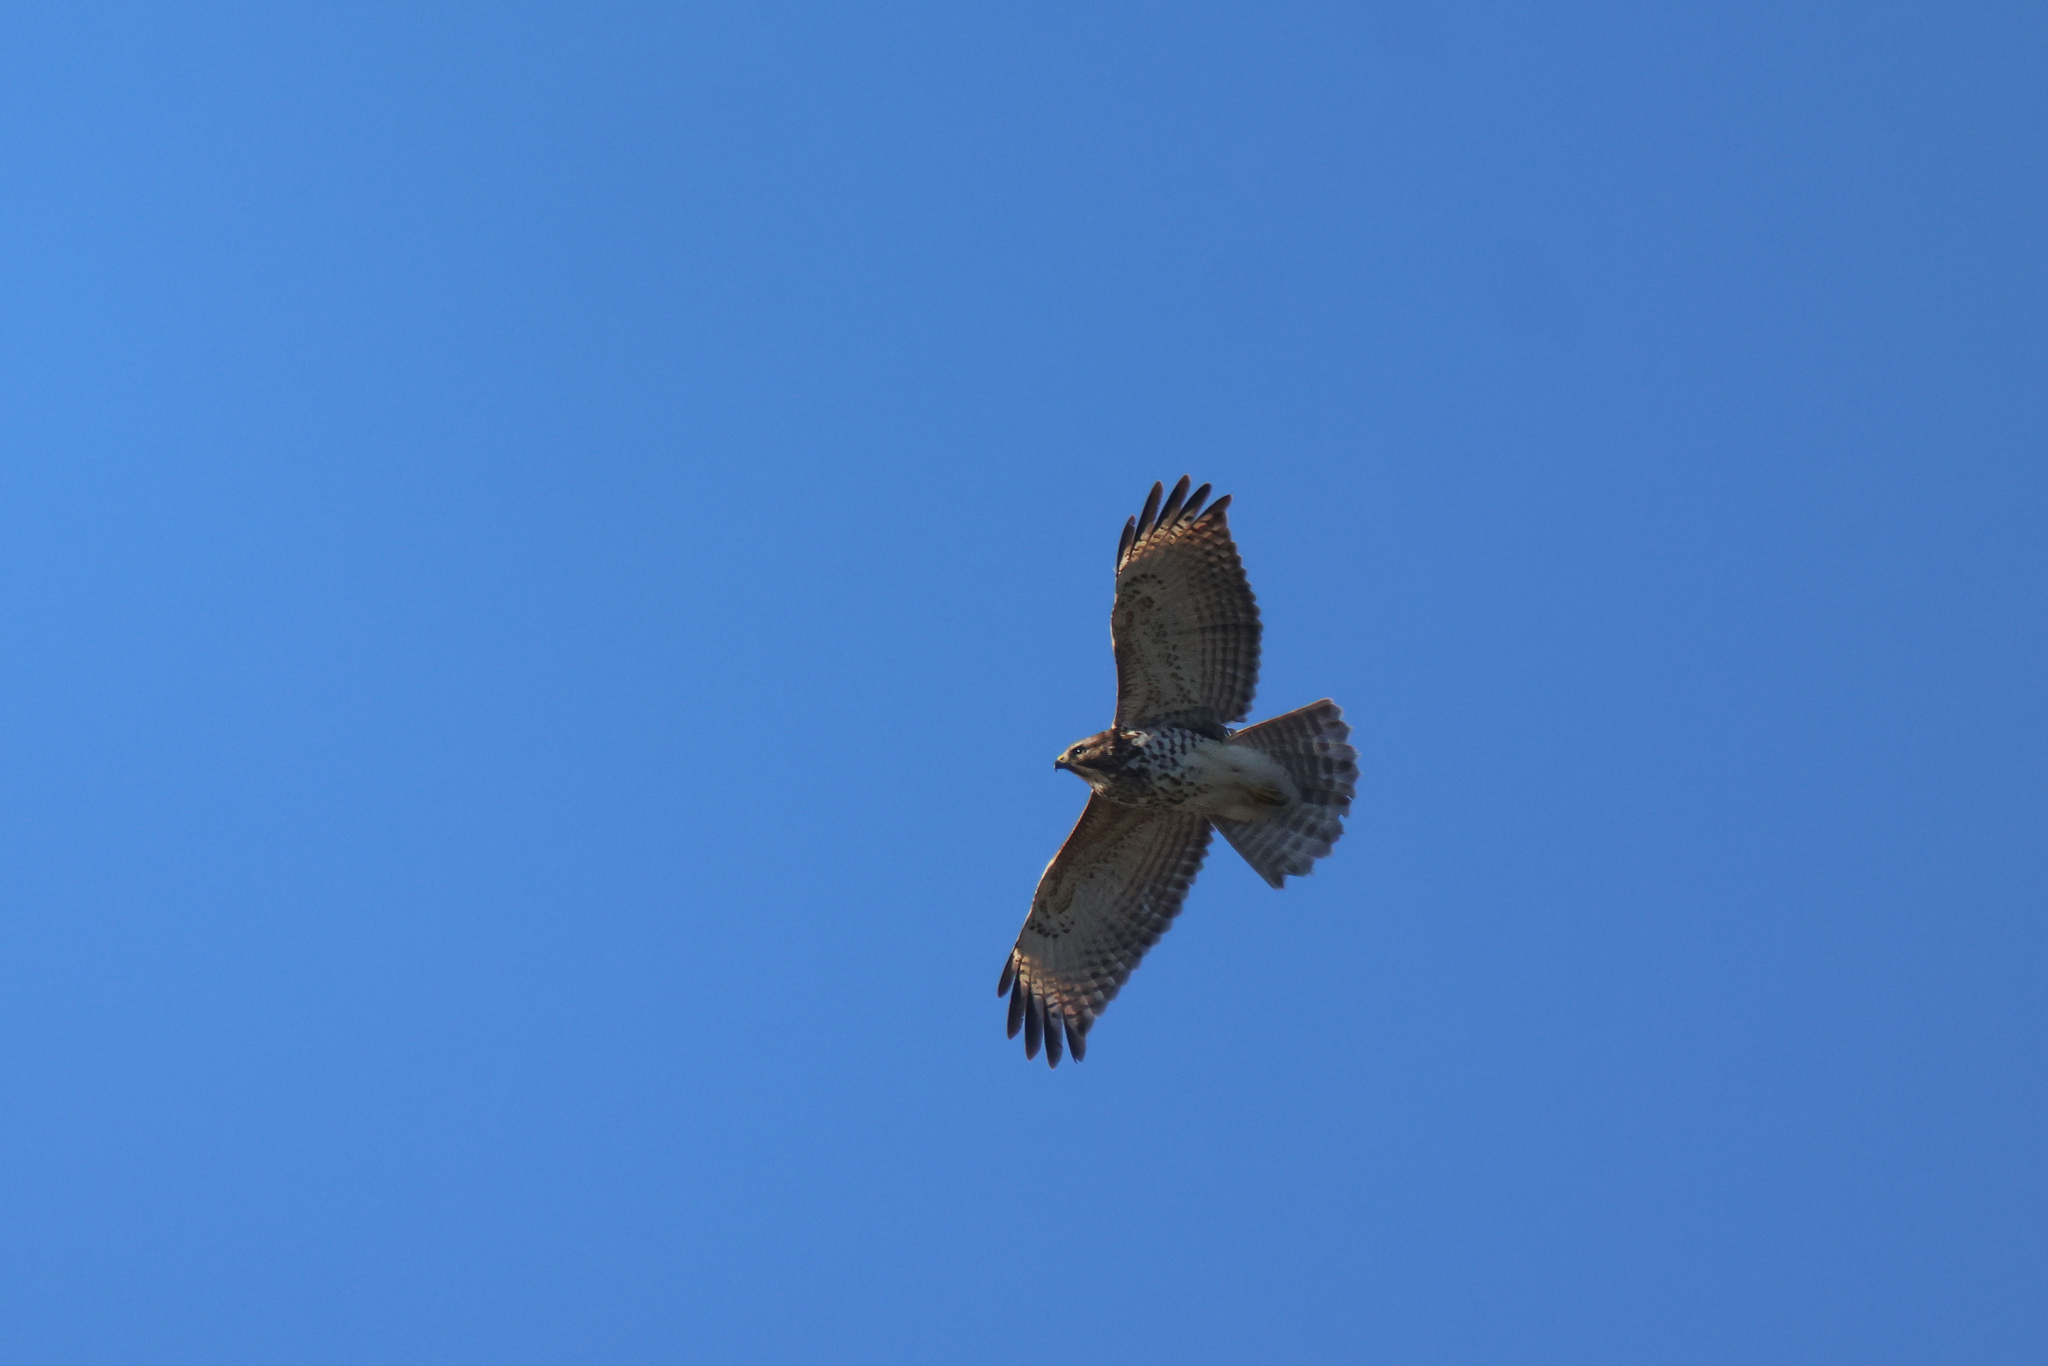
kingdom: Animalia
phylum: Chordata
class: Aves
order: Accipitriformes
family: Accipitridae
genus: Buteo
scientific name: Buteo lineatus
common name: Red-shouldered hawk
